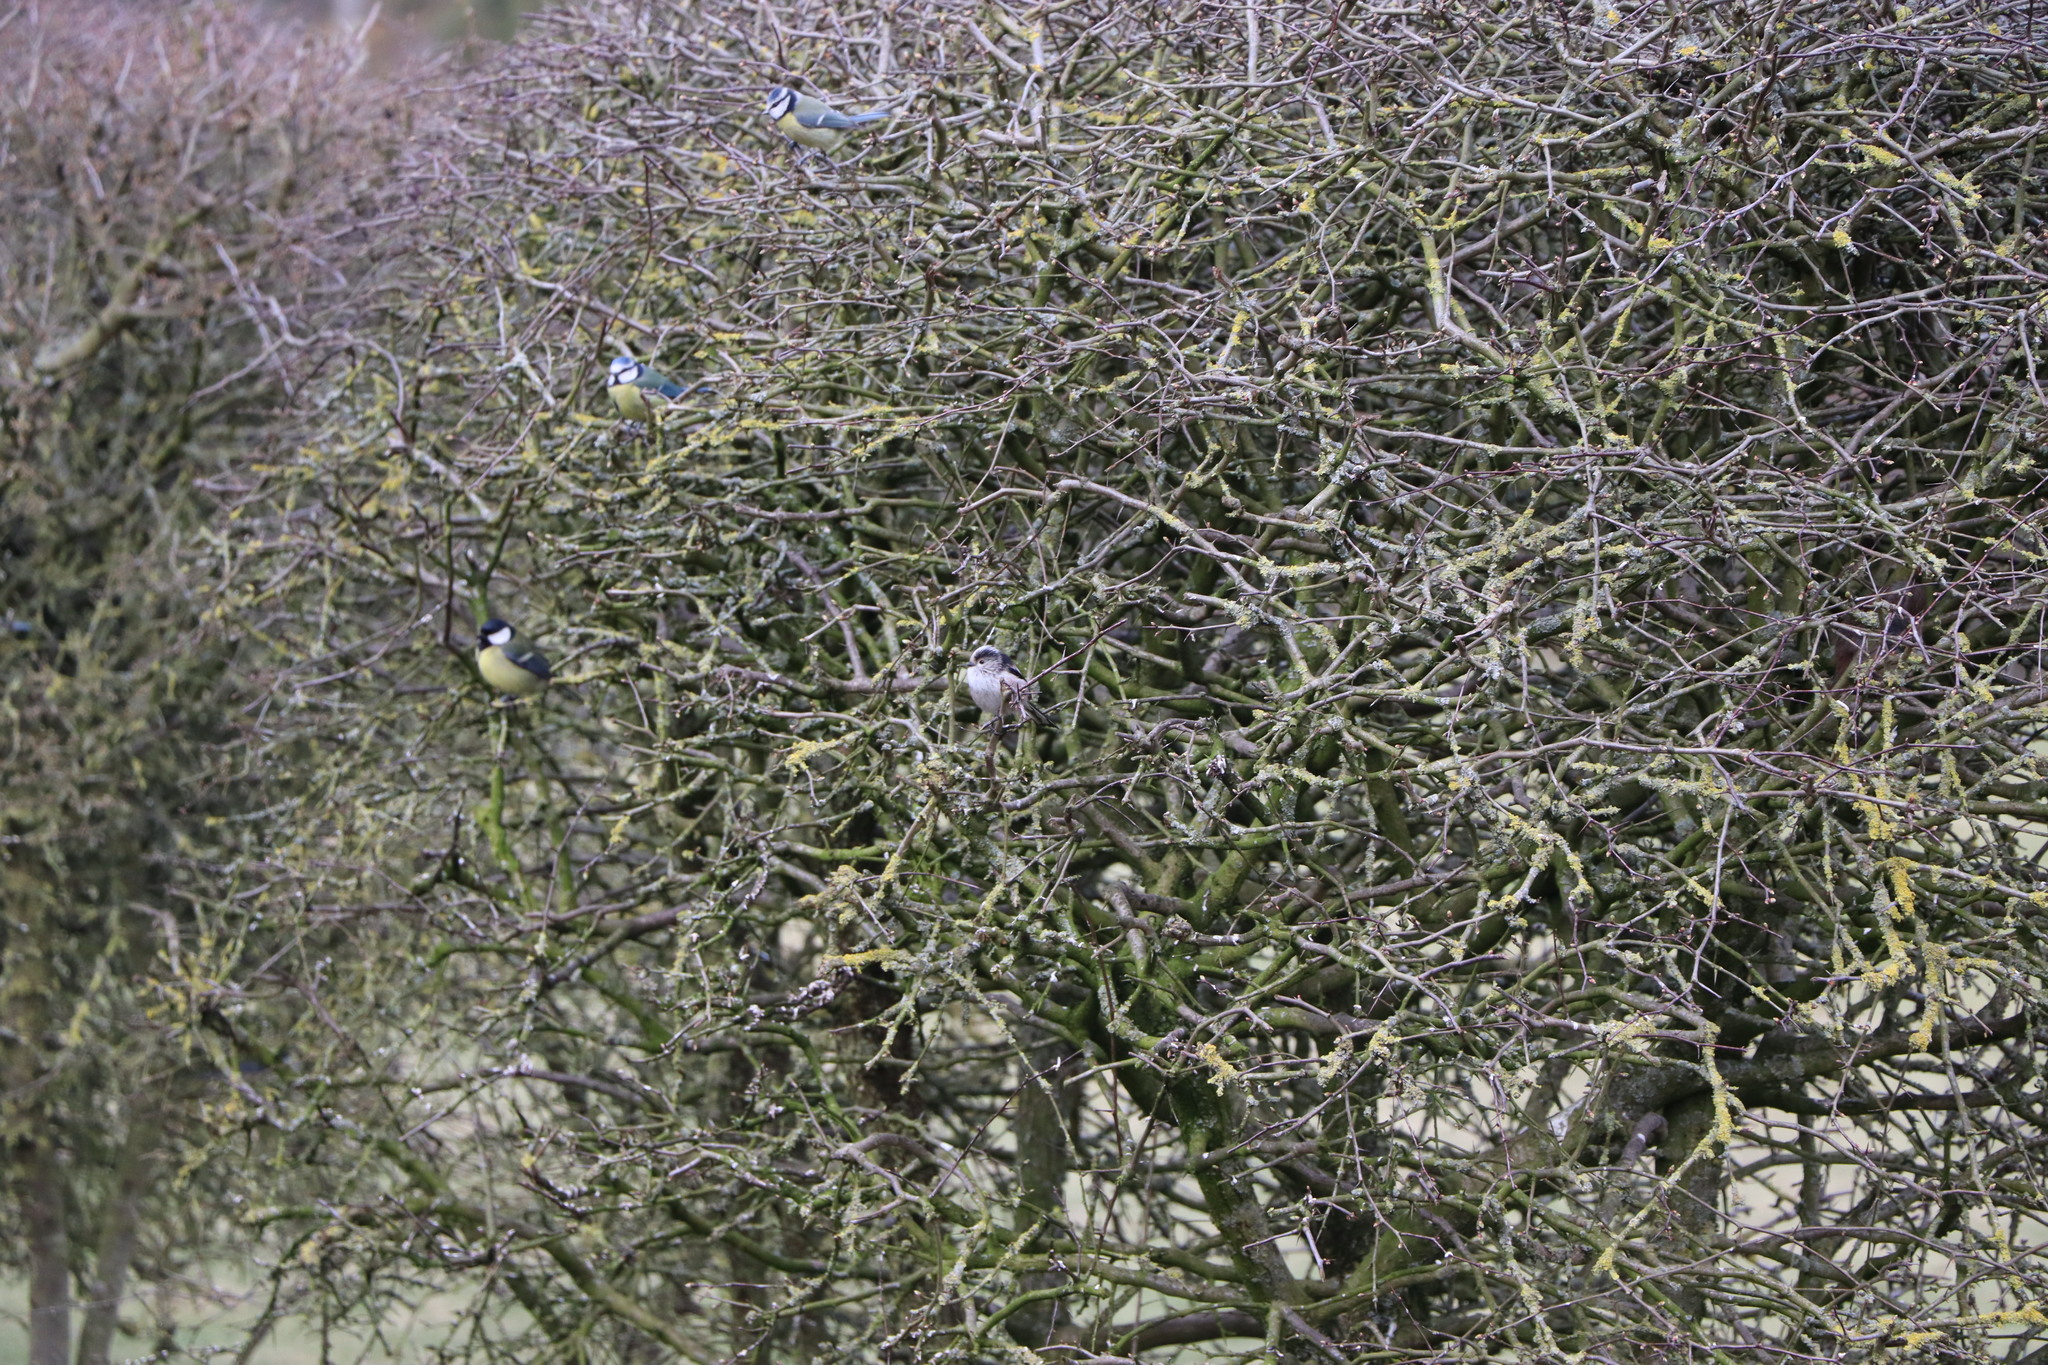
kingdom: Animalia
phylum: Chordata
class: Aves
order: Passeriformes
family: Aegithalidae
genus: Aegithalos
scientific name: Aegithalos caudatus
